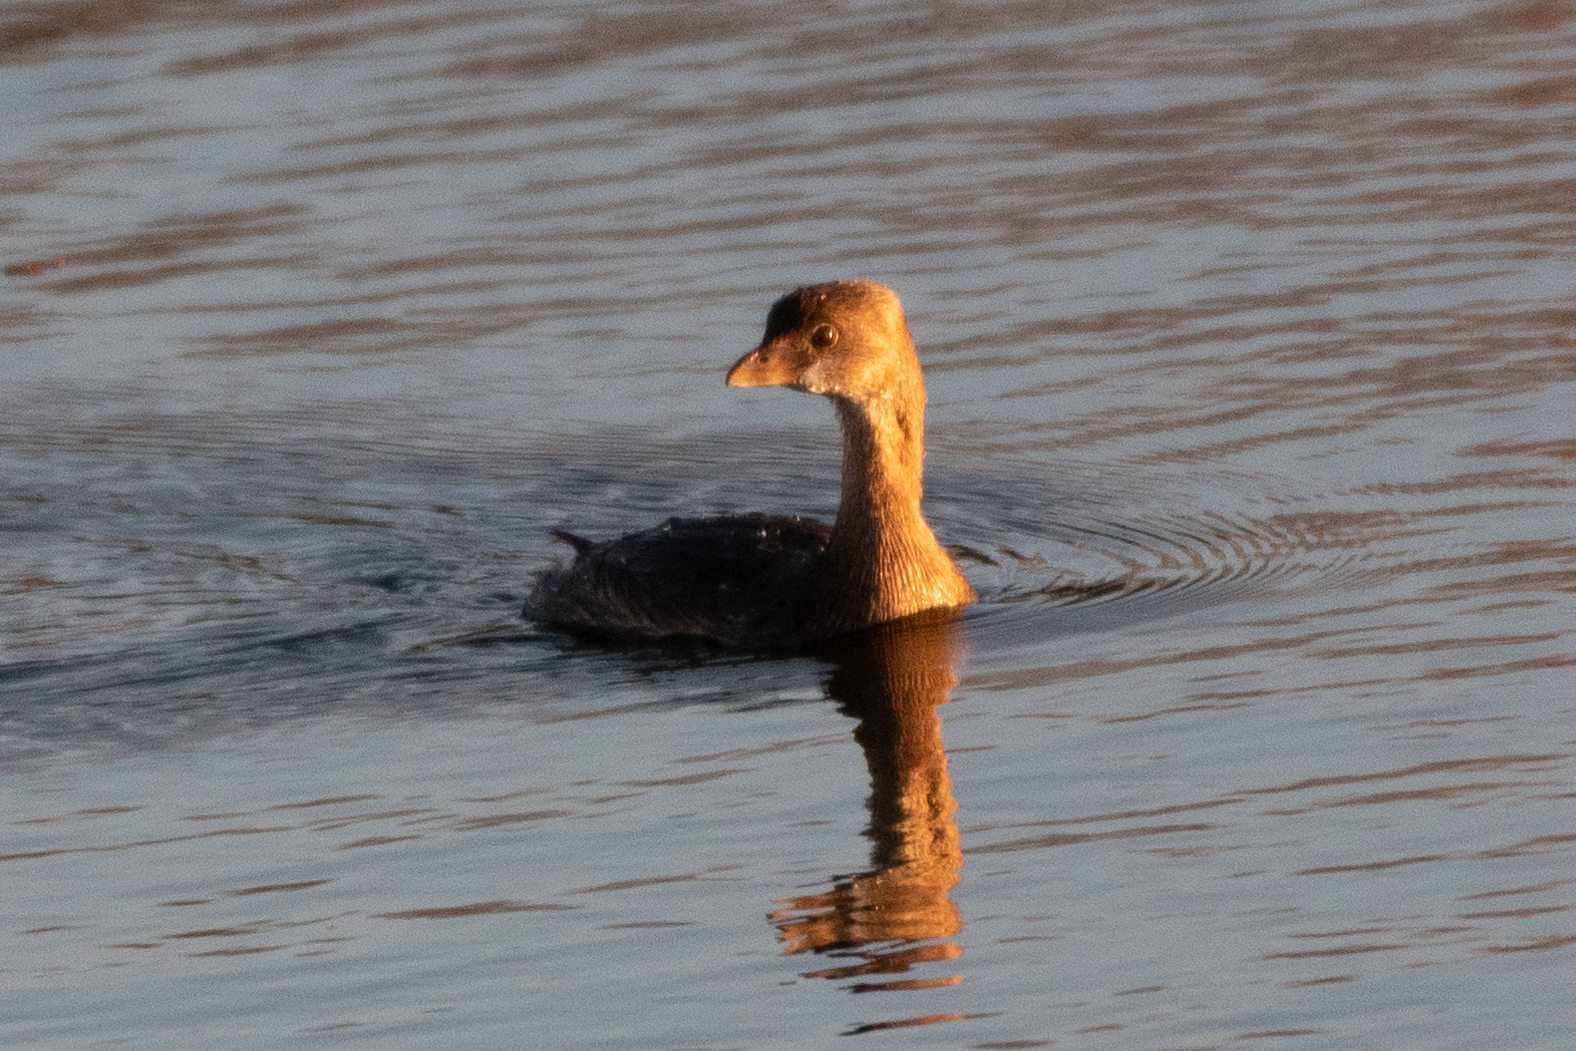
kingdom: Animalia
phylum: Chordata
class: Aves
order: Podicipediformes
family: Podicipedidae
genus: Podilymbus
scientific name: Podilymbus podiceps
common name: Pied-billed grebe
